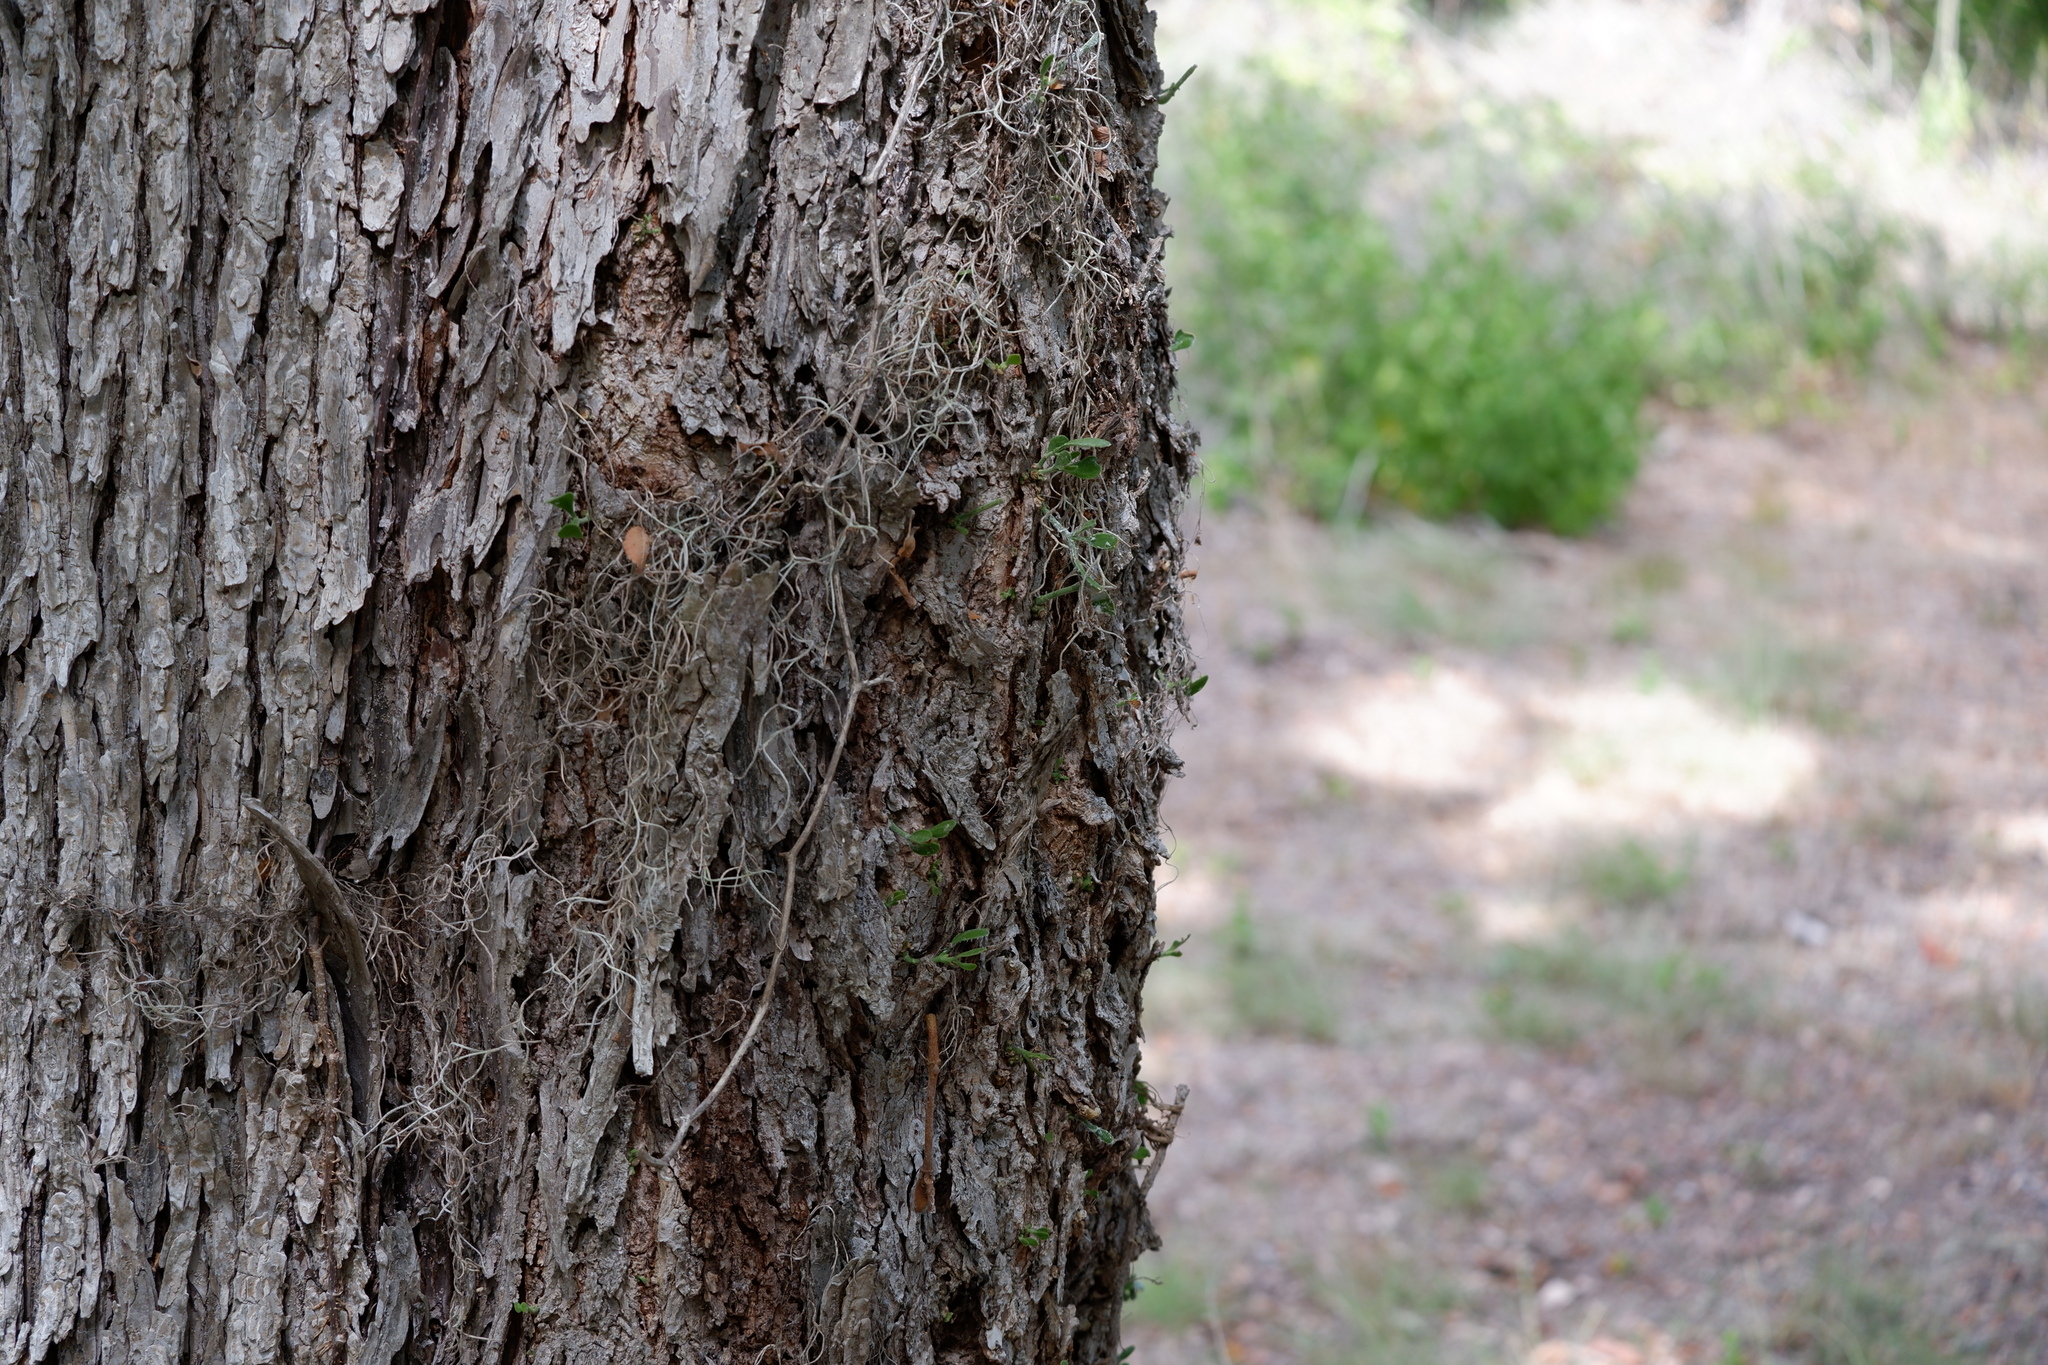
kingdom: Plantae
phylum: Tracheophyta
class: Magnoliopsida
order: Santalales
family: Viscaceae
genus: Phoradendron
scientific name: Phoradendron leucarpum
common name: Pacific mistletoe
